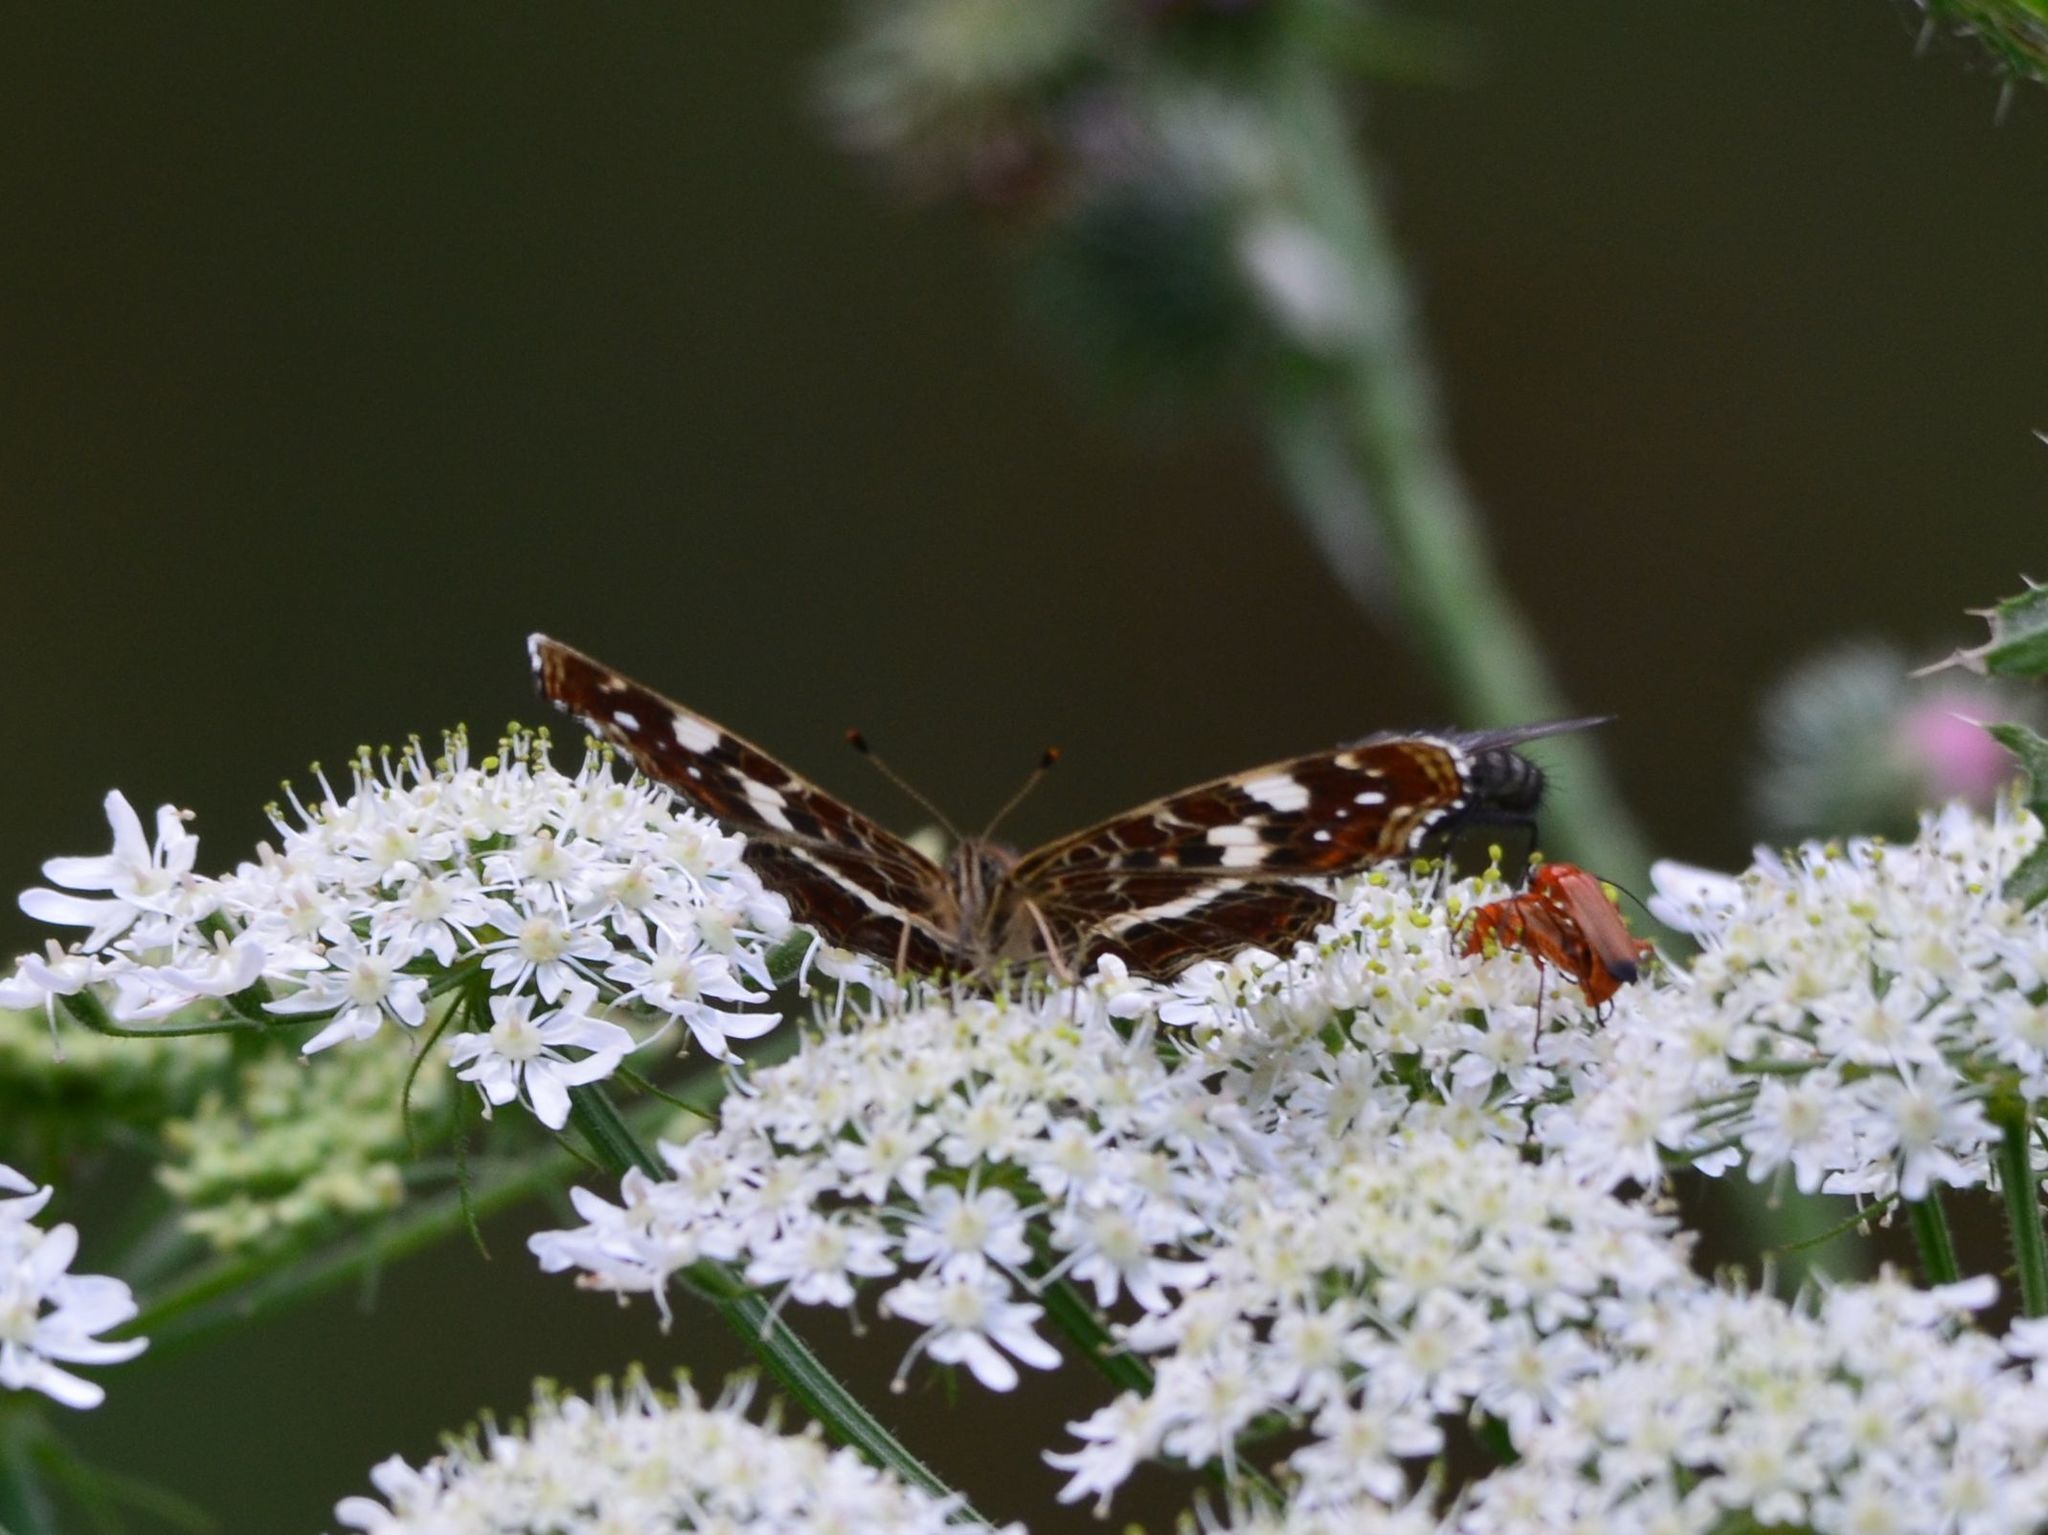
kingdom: Animalia
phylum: Arthropoda
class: Insecta
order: Lepidoptera
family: Nymphalidae
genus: Araschnia
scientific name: Araschnia levana
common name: Map butterfly
